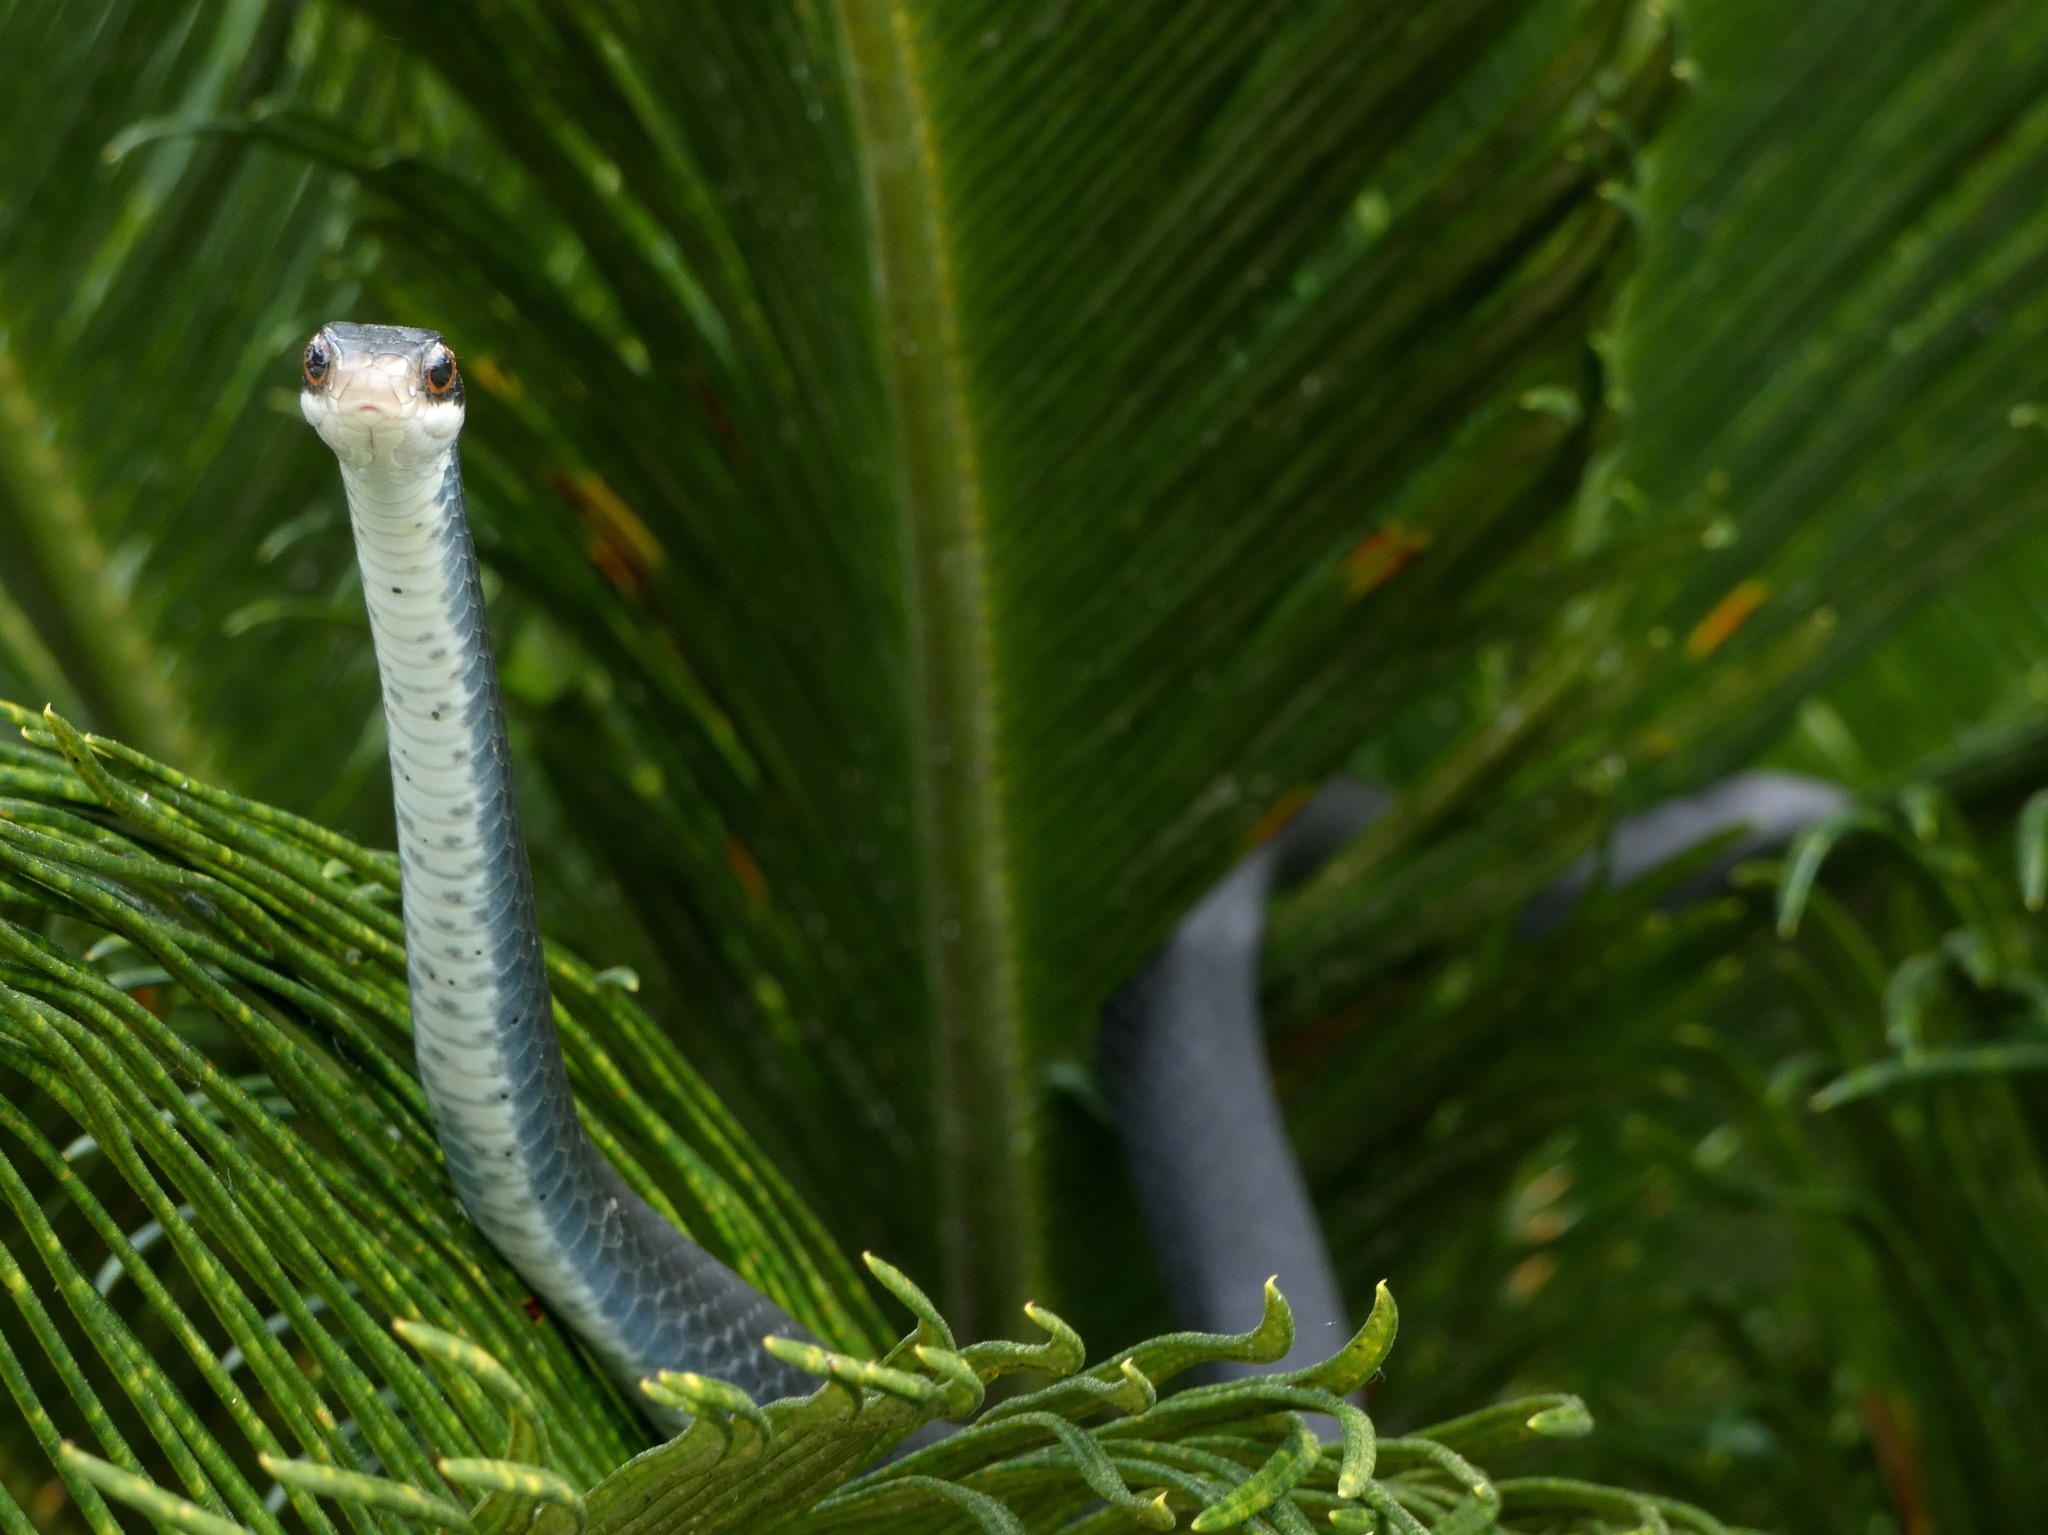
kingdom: Animalia
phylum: Chordata
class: Squamata
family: Colubridae
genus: Coluber
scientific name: Coluber constrictor
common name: Eastern racer
